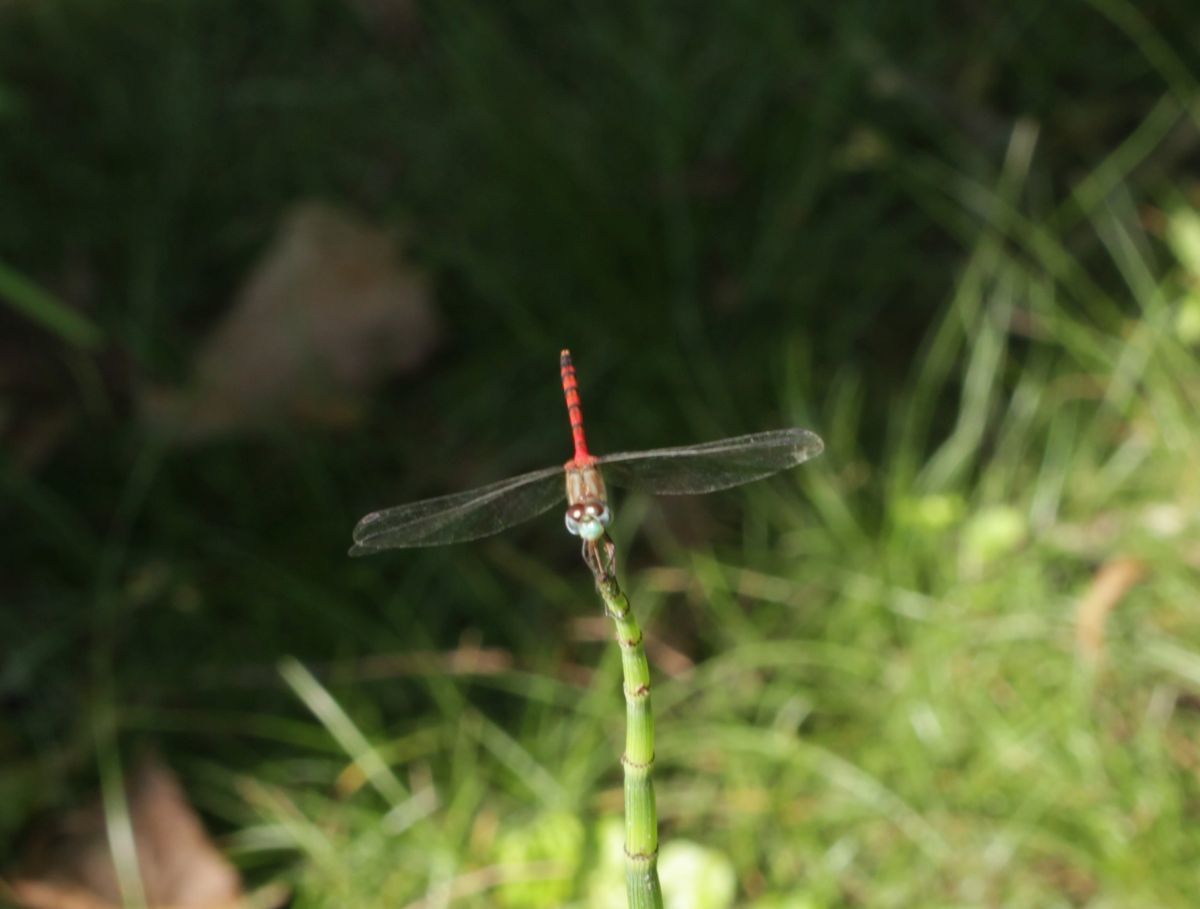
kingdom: Animalia
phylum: Arthropoda
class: Insecta
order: Odonata
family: Libellulidae
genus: Sympetrum
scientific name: Sympetrum ambiguum
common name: Blue-faced meadowhawk
